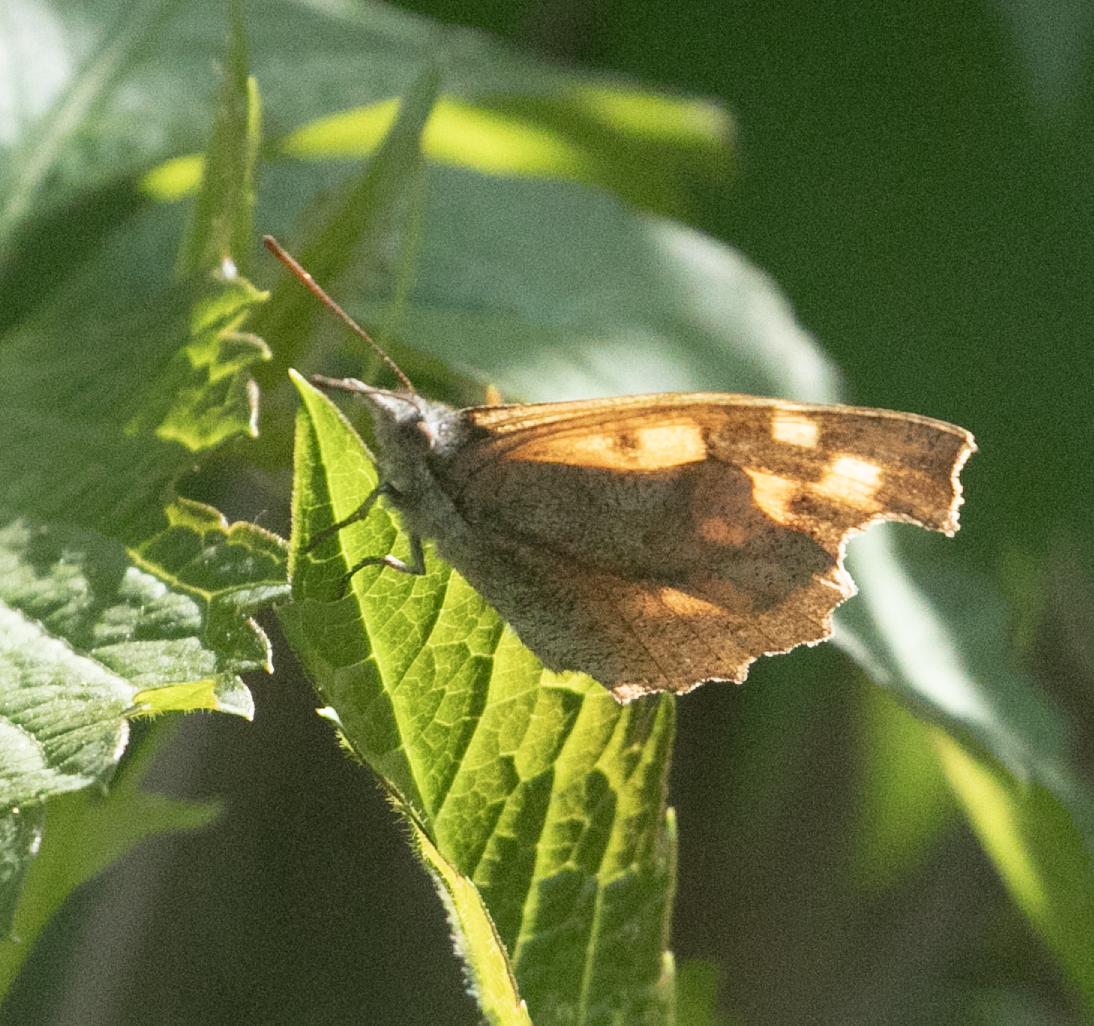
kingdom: Animalia
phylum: Arthropoda
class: Insecta
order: Lepidoptera
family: Nymphalidae
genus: Libythea
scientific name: Libythea celtis
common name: Nettle-tree butterfly
